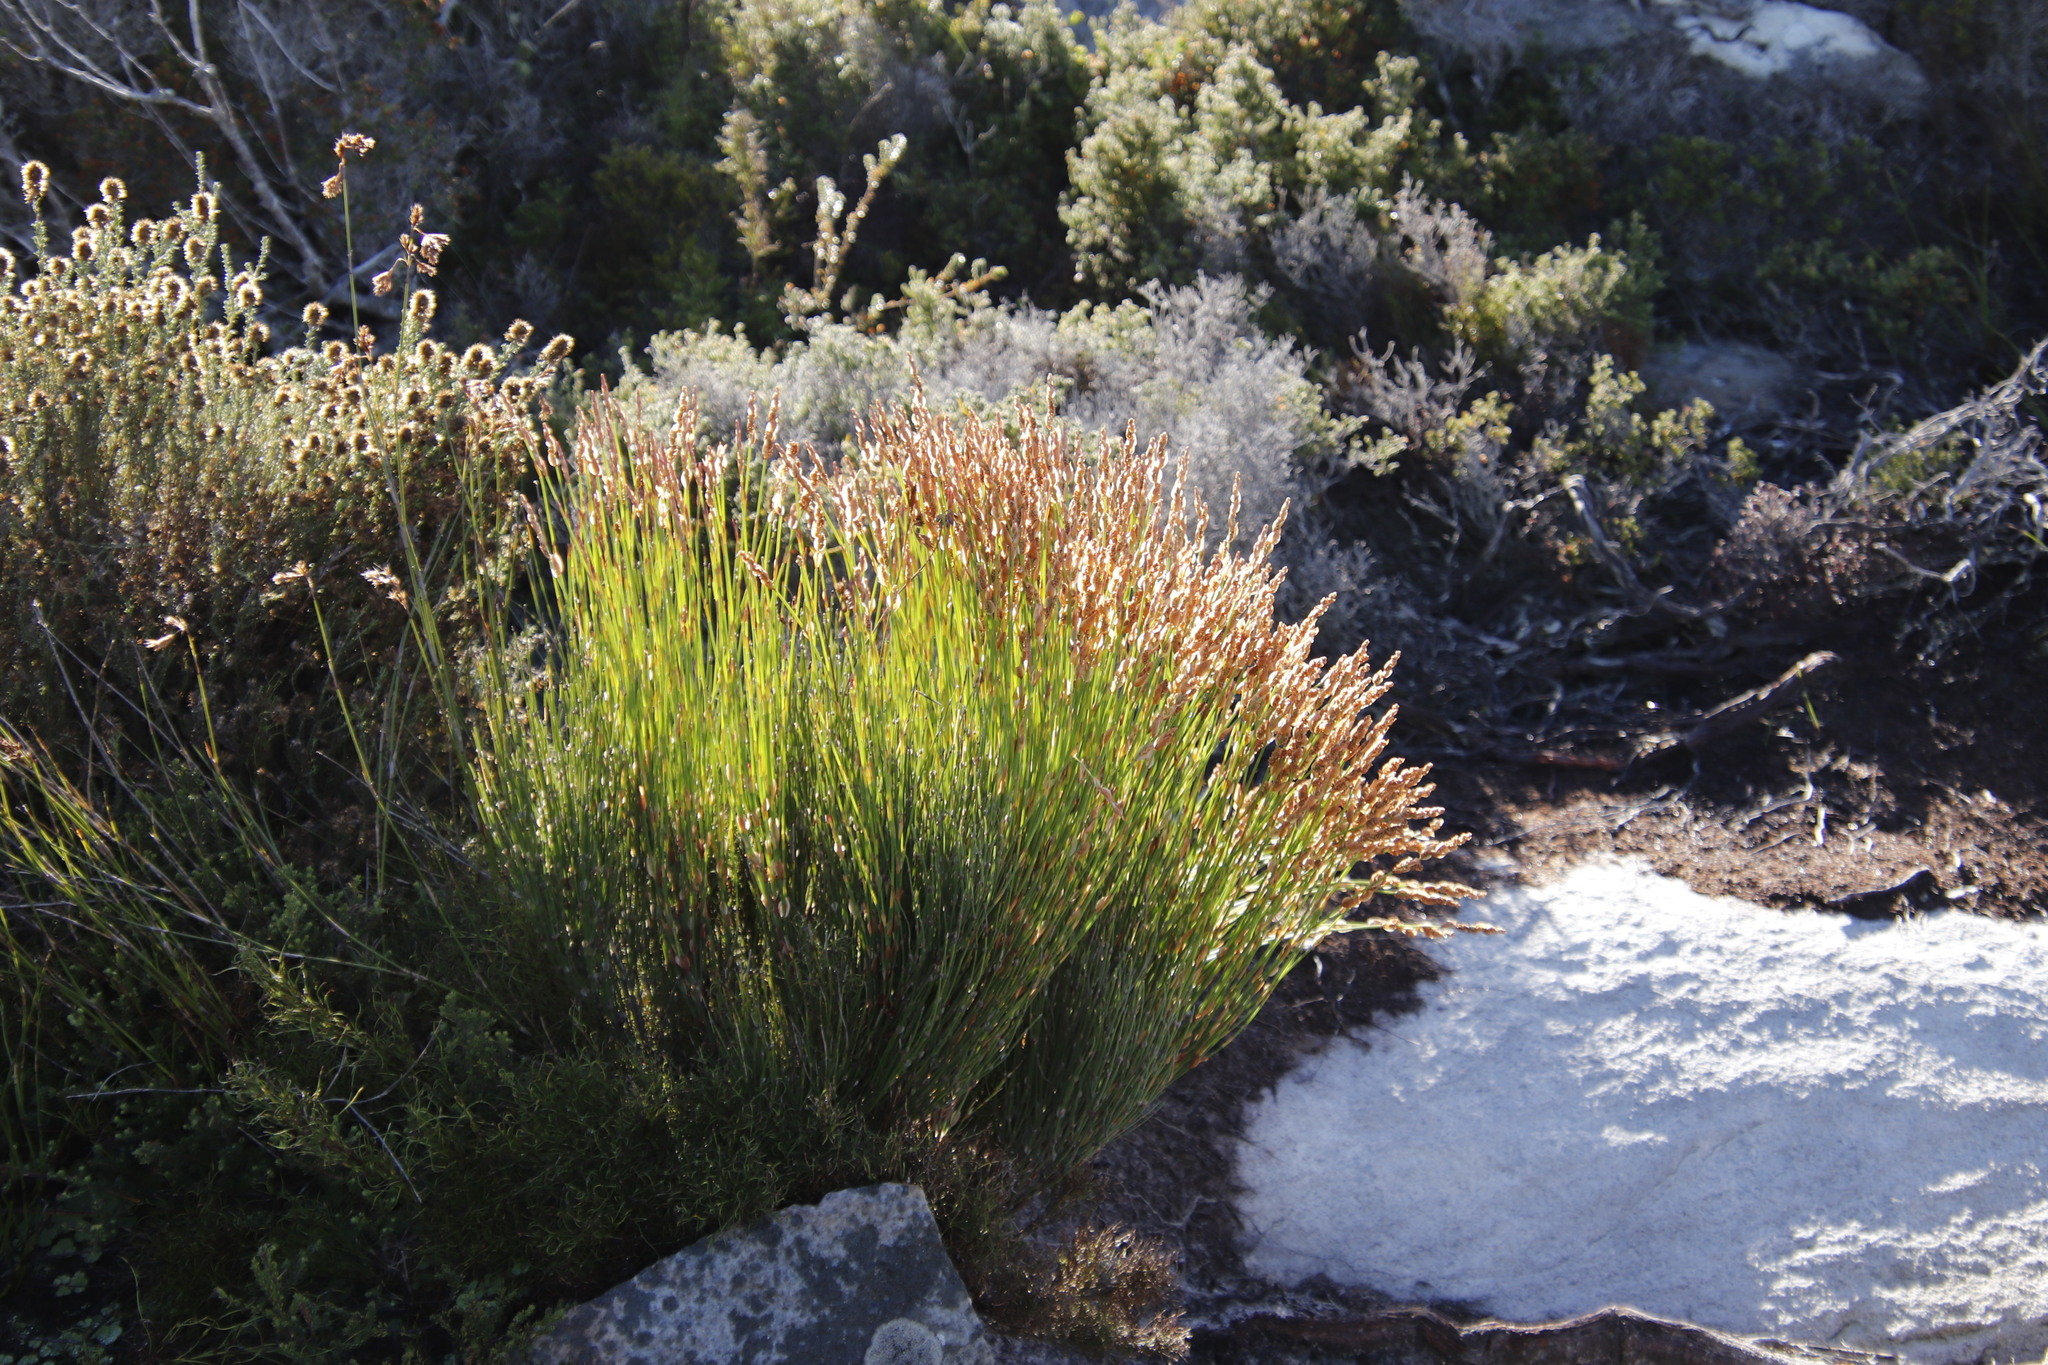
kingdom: Plantae
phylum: Tracheophyta
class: Liliopsida
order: Poales
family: Restionaceae
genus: Elegia
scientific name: Elegia stipularis
